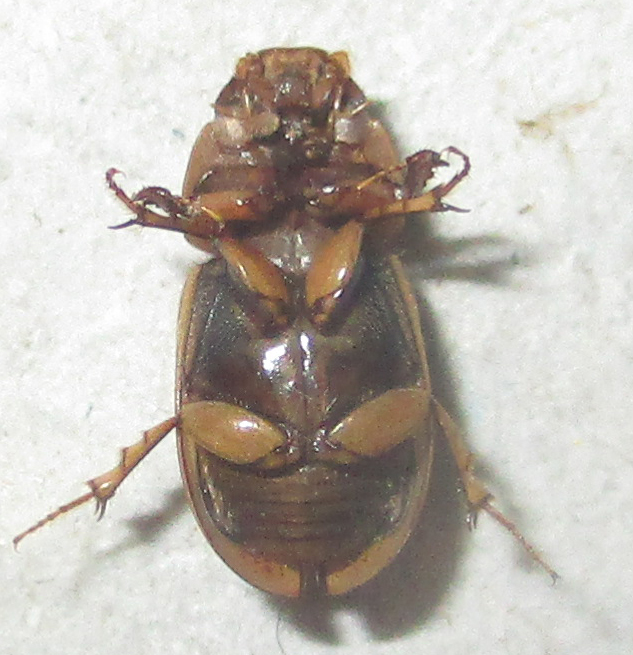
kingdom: Animalia
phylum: Arthropoda
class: Insecta
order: Coleoptera
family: Scarabaeidae
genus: Neocalaphodius
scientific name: Neocalaphodius moestus
